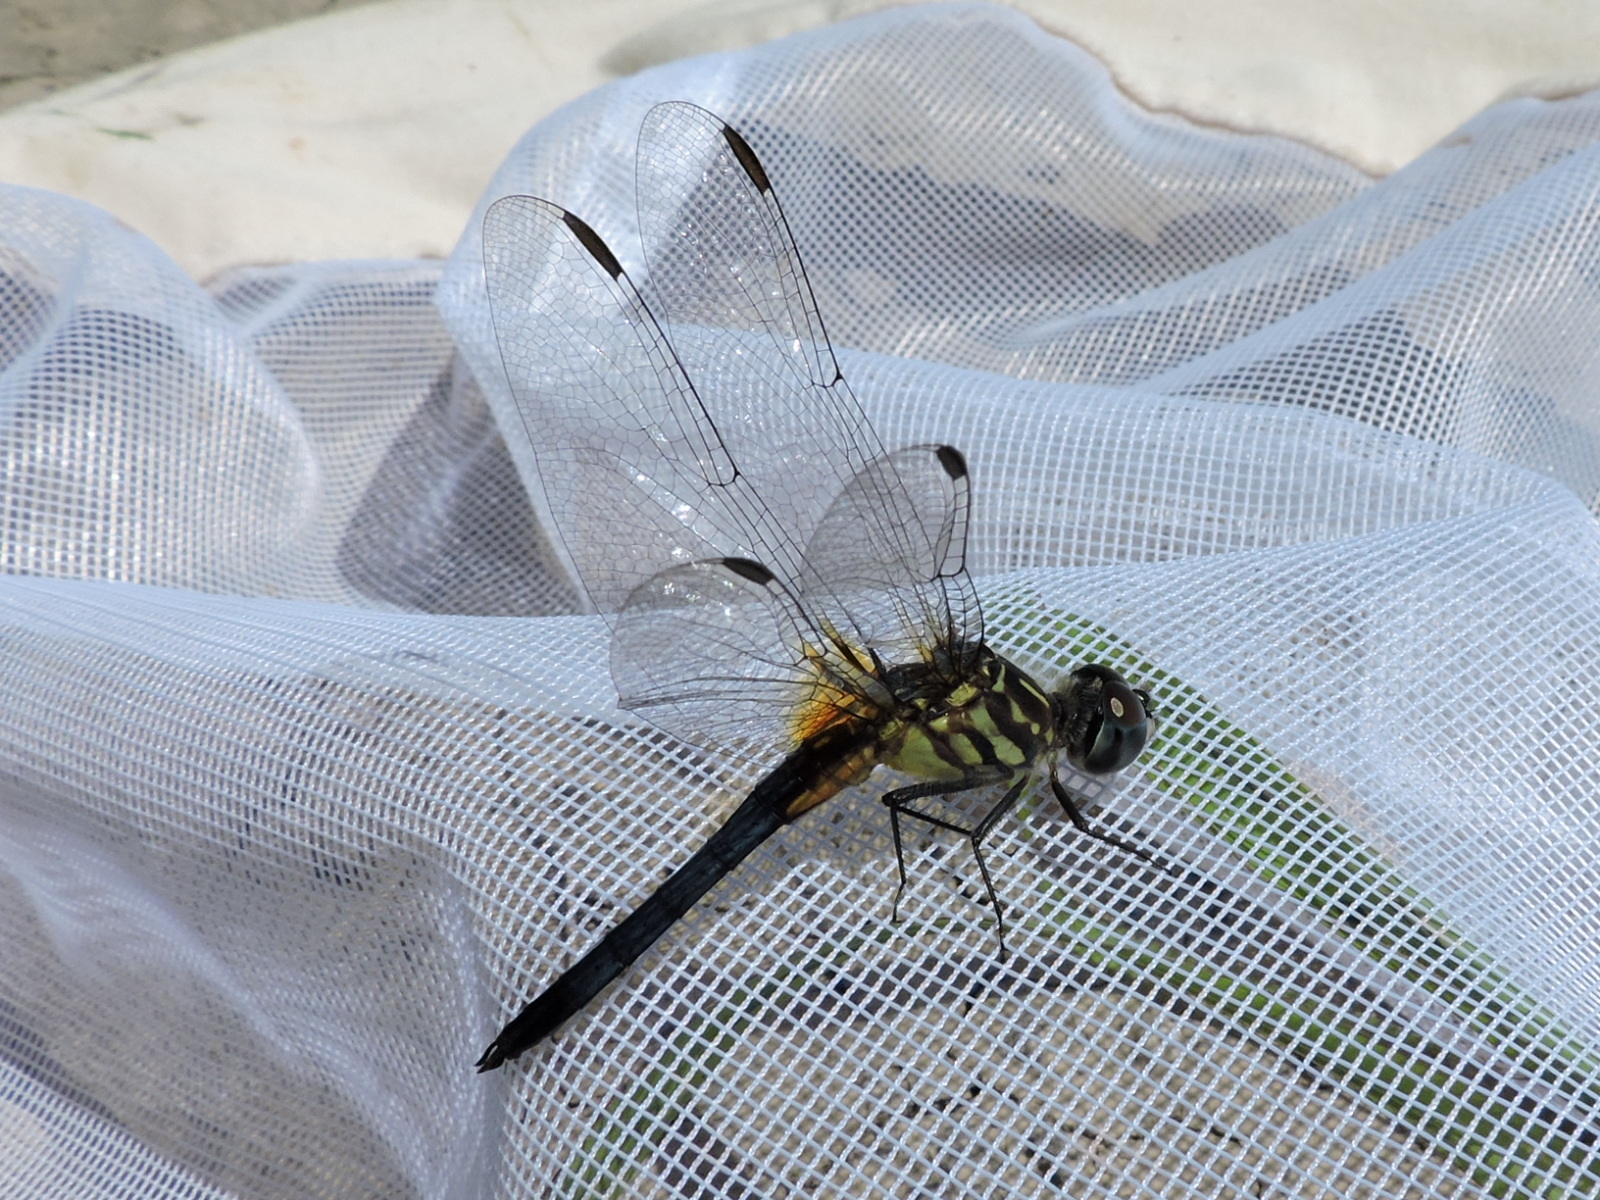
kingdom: Animalia
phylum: Arthropoda
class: Insecta
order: Odonata
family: Libellulidae
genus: Pachydiplax
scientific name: Pachydiplax longipennis
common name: Blue dasher
